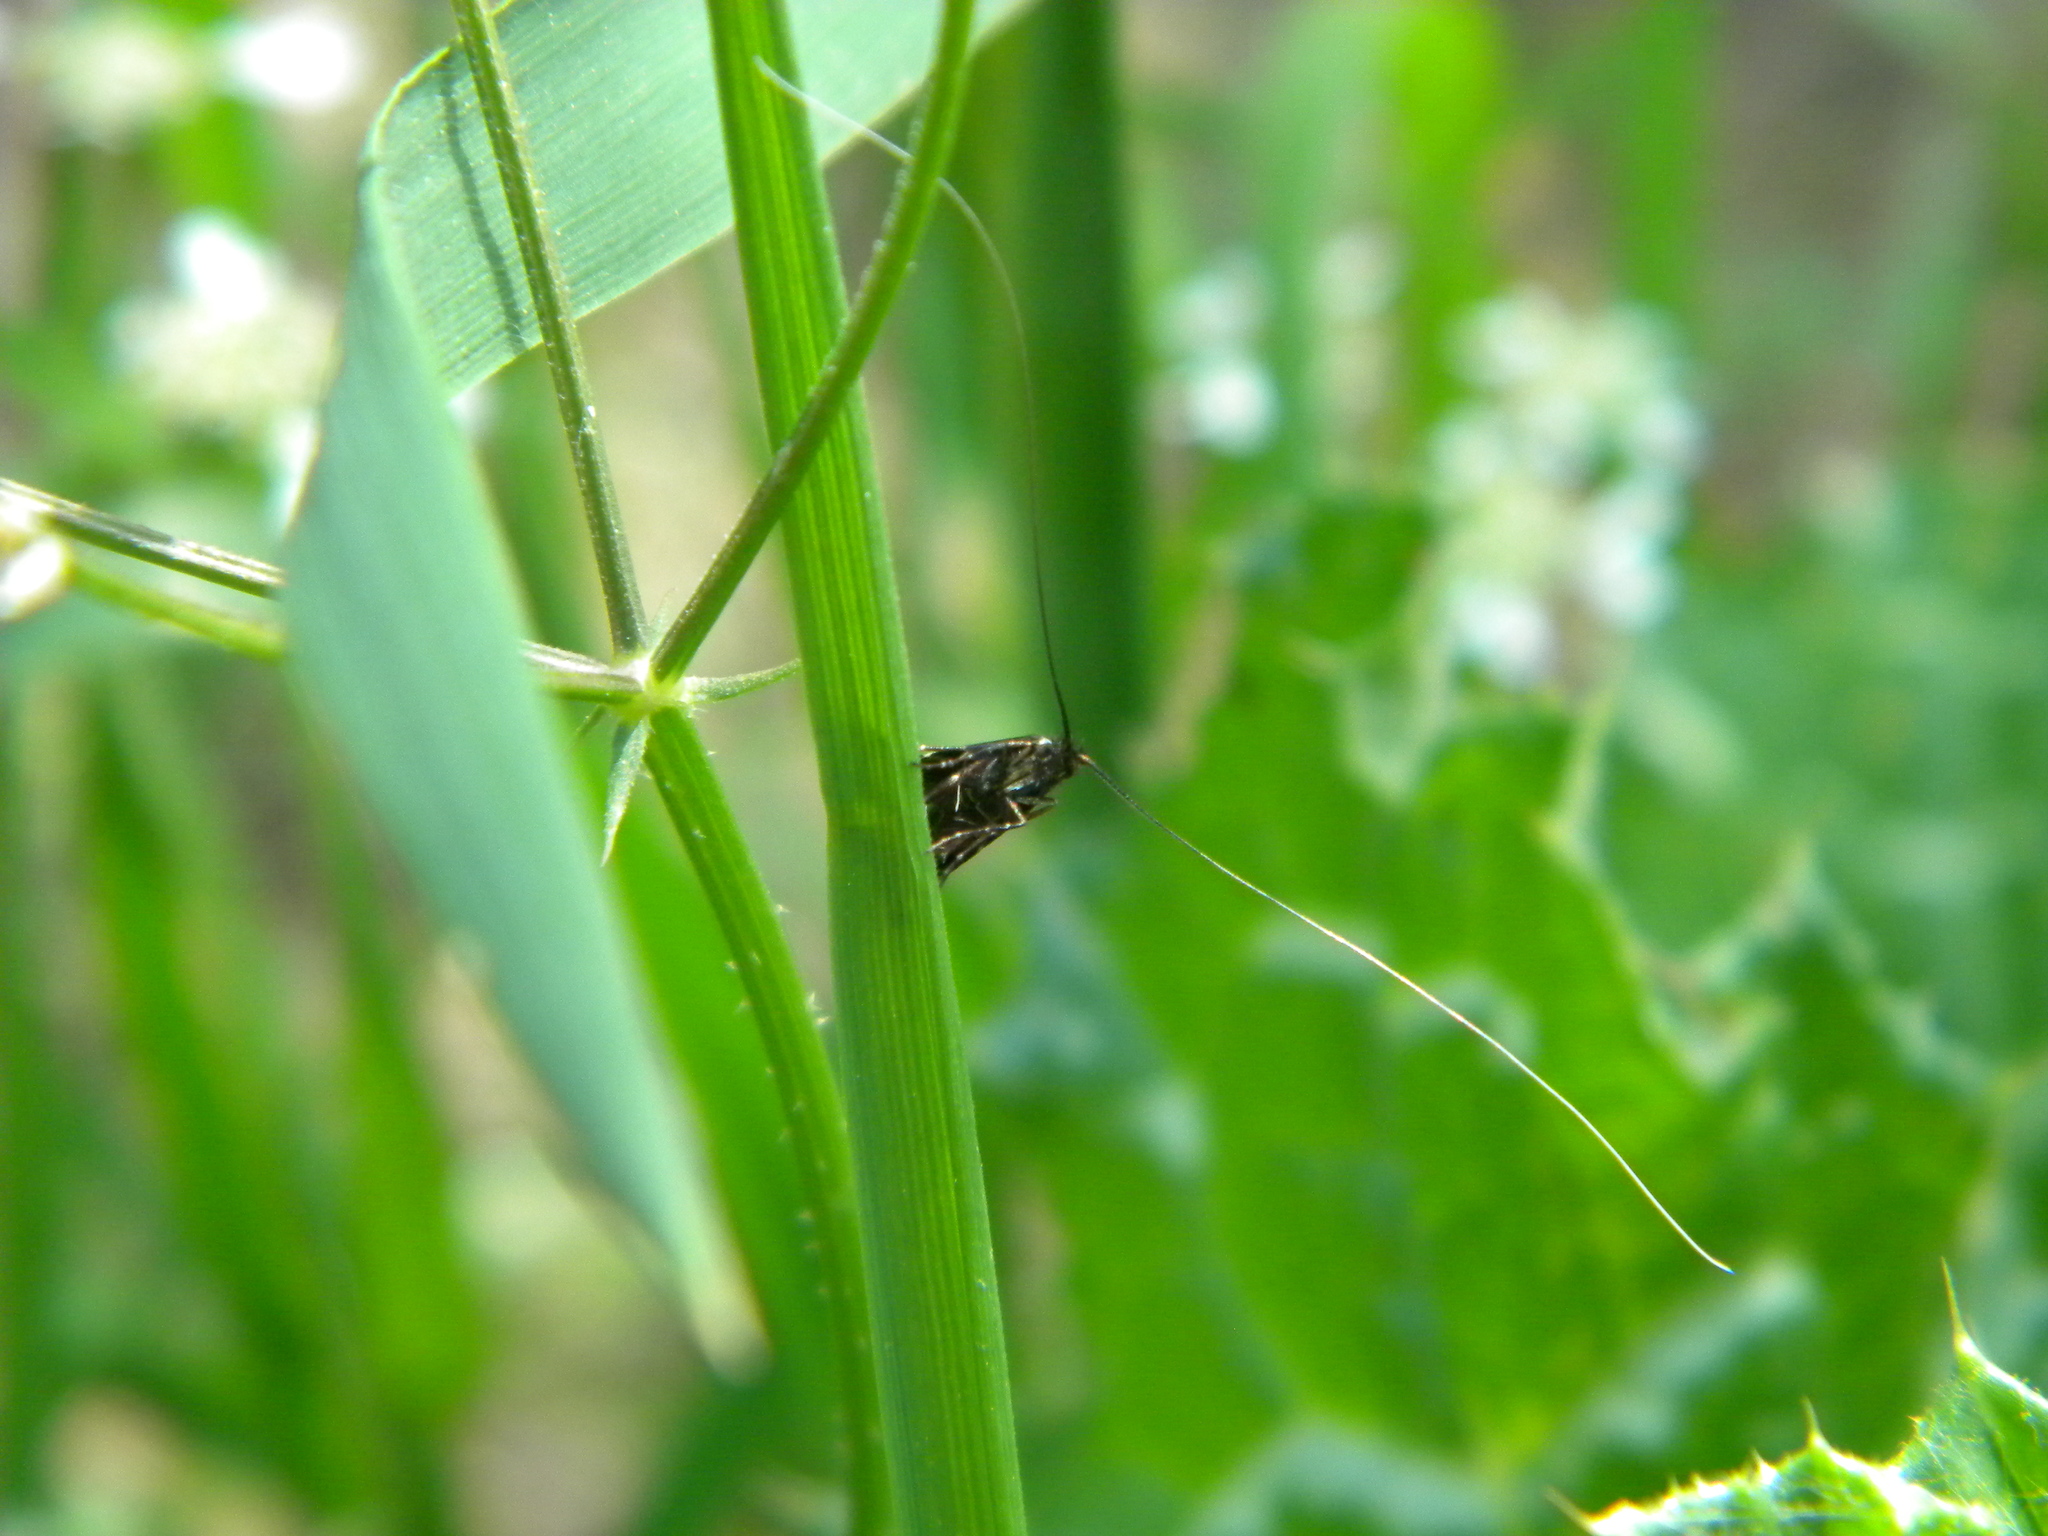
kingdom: Animalia
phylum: Arthropoda
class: Insecta
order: Lepidoptera
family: Adelidae
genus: Adela
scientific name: Adela paludicolella
